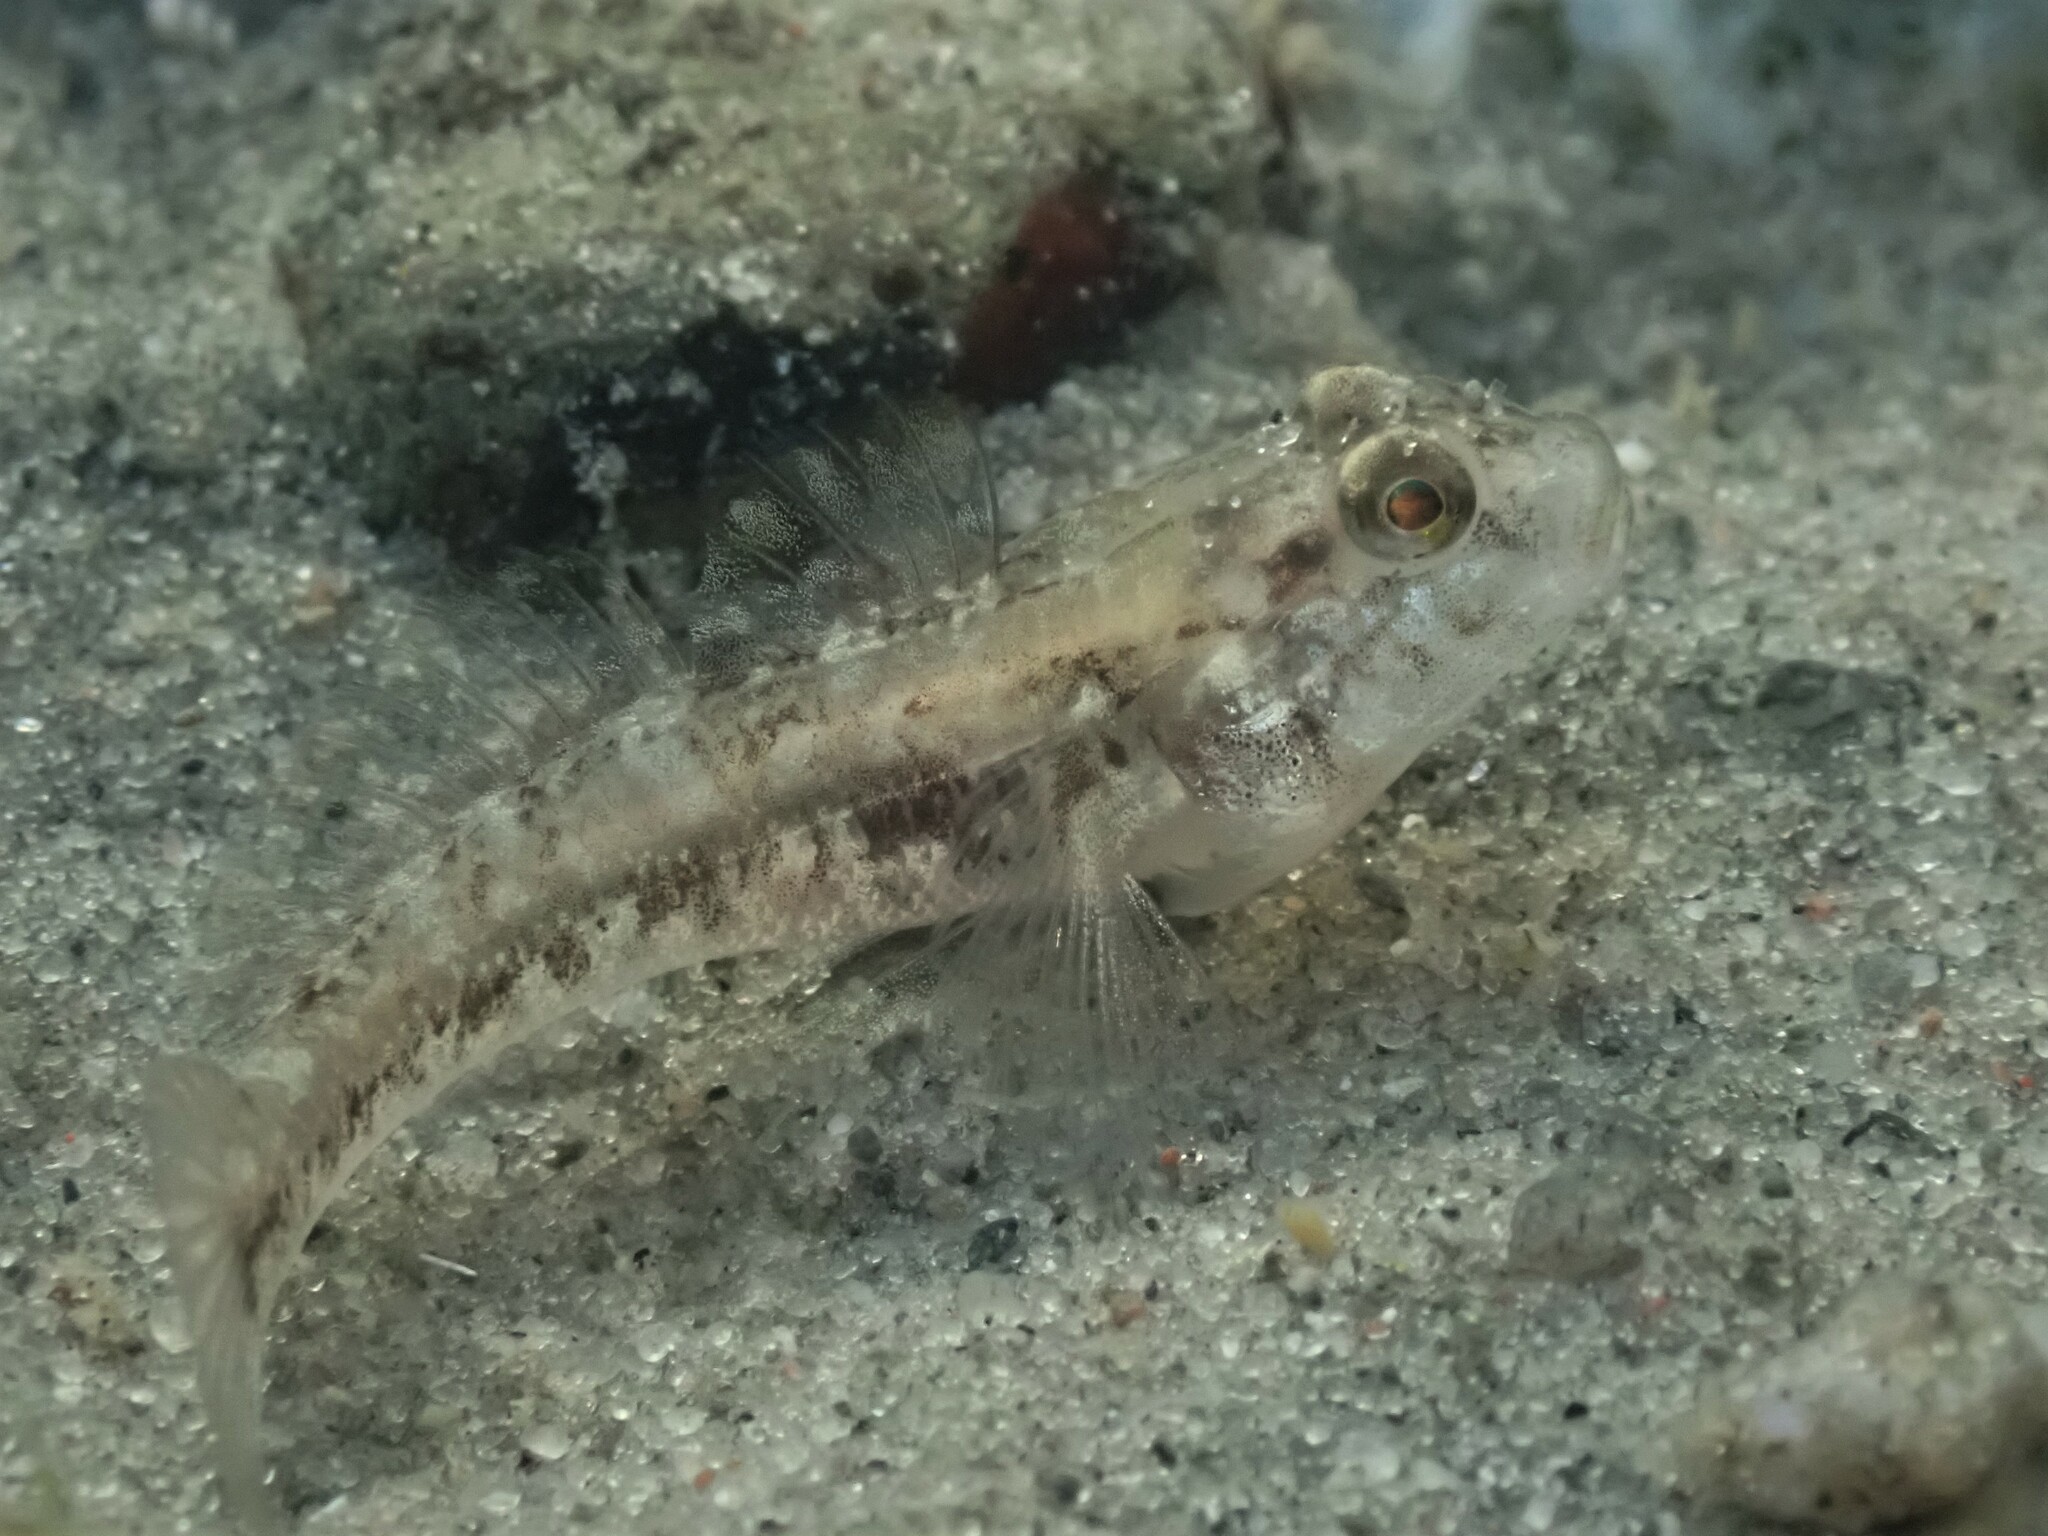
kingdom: Animalia
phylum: Chordata
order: Perciformes
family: Gobiidae
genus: Gobius
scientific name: Gobius niger
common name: Black goby
